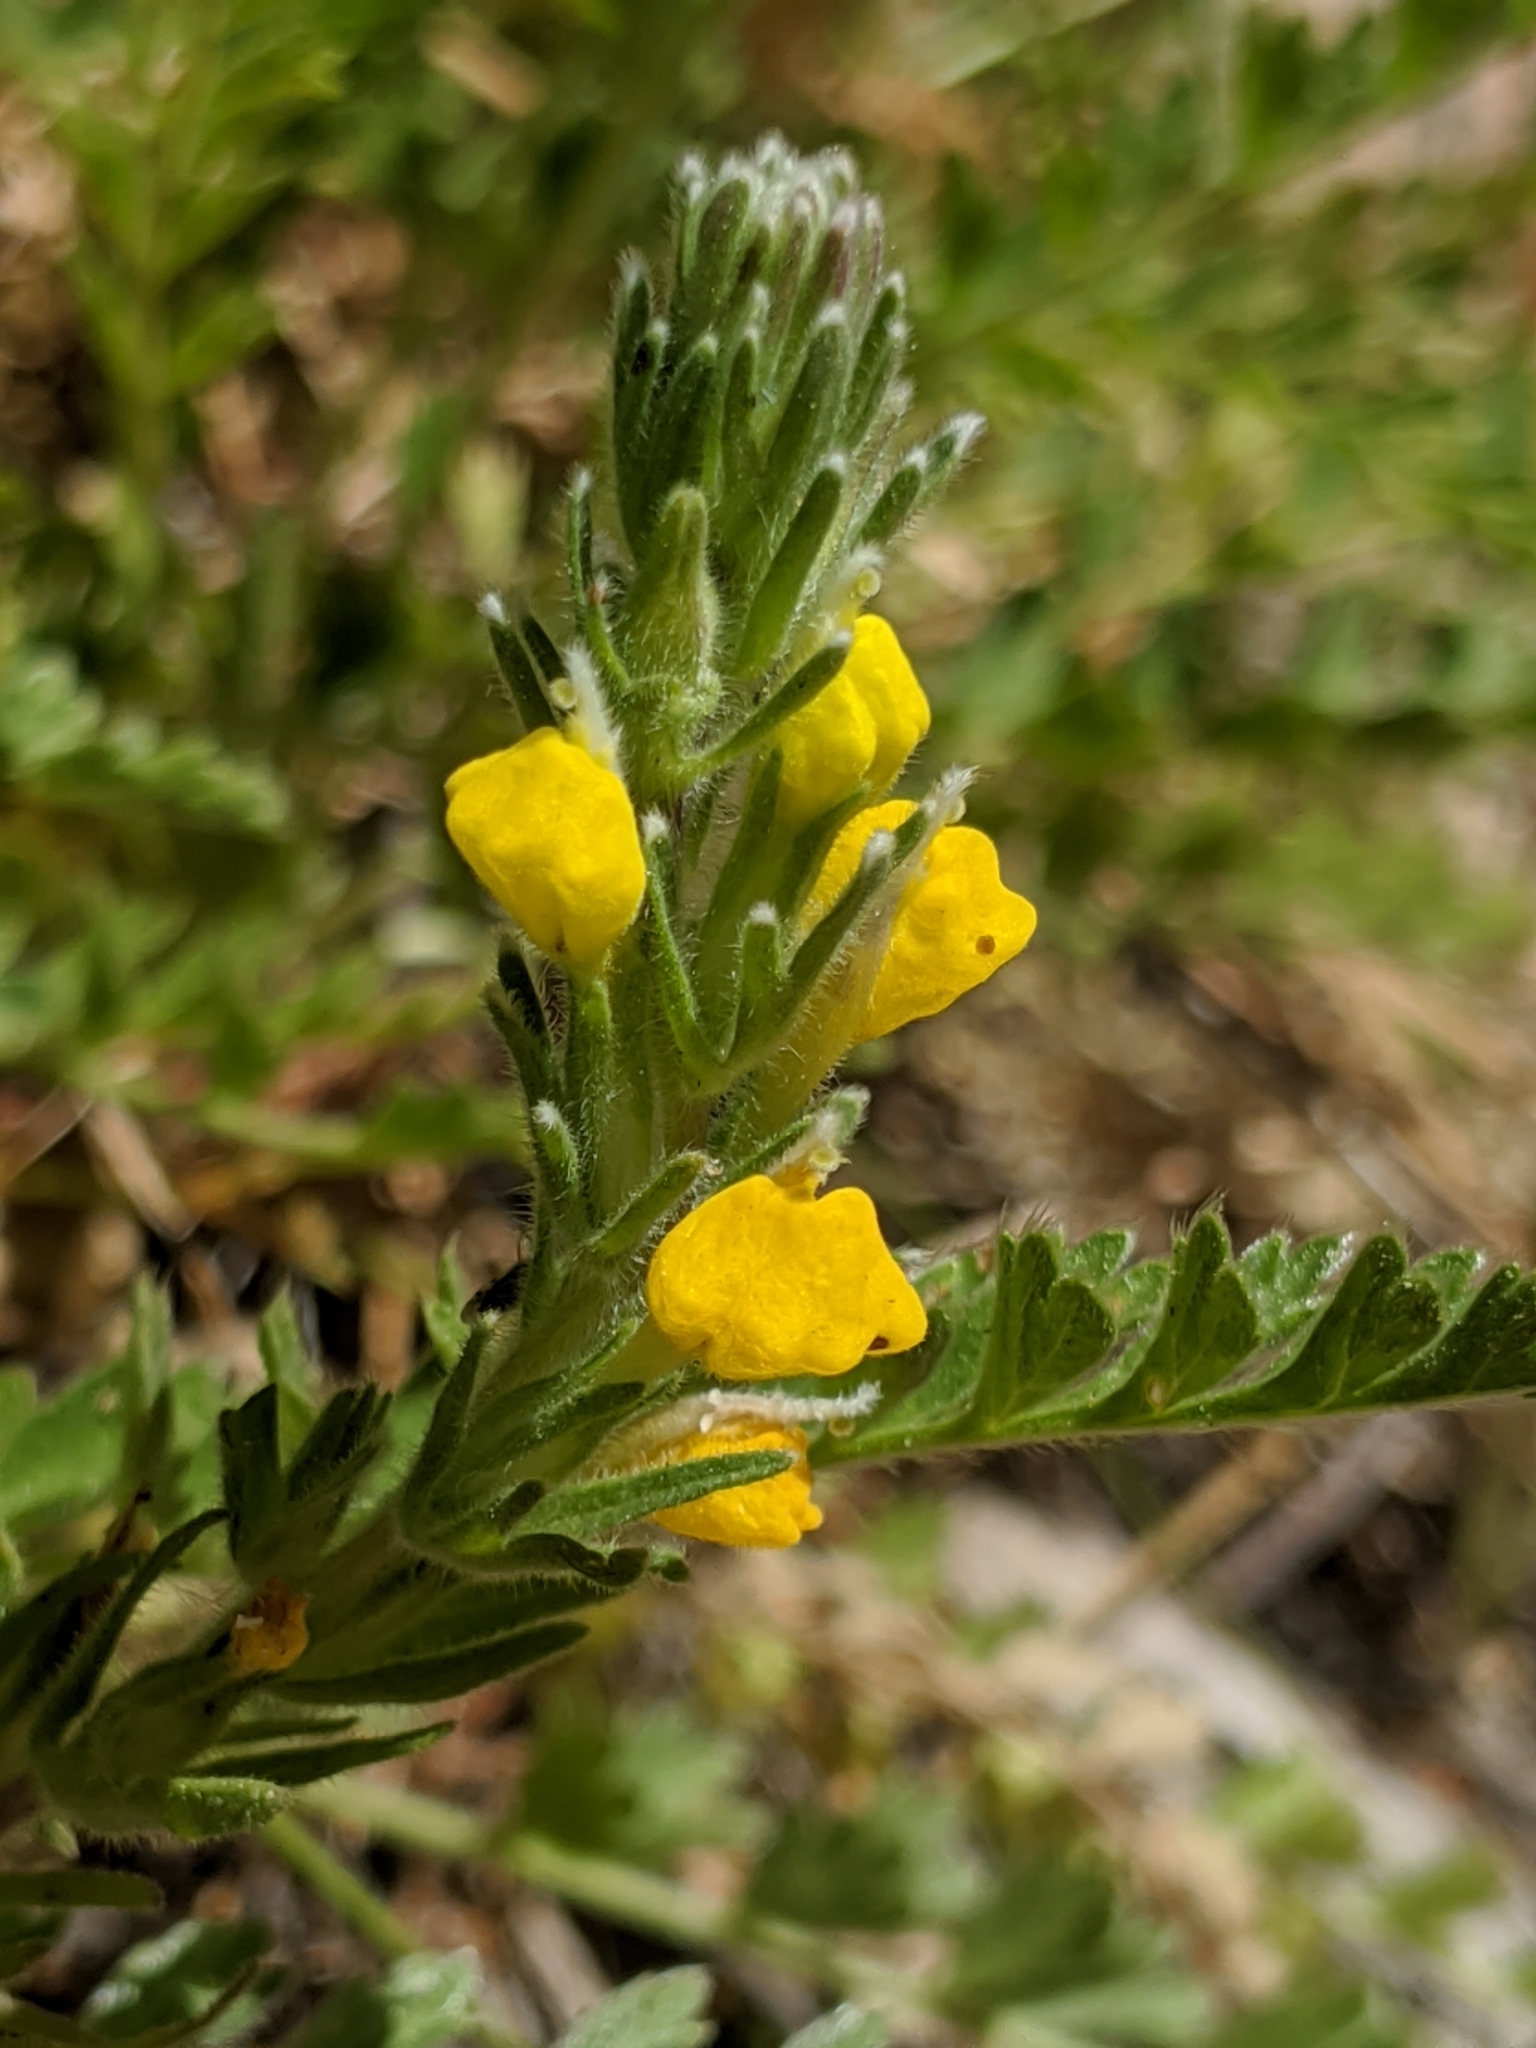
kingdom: Plantae
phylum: Tracheophyta
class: Magnoliopsida
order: Lamiales
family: Orobanchaceae
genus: Castilleja
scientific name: Castilleja lasiorhyncha
